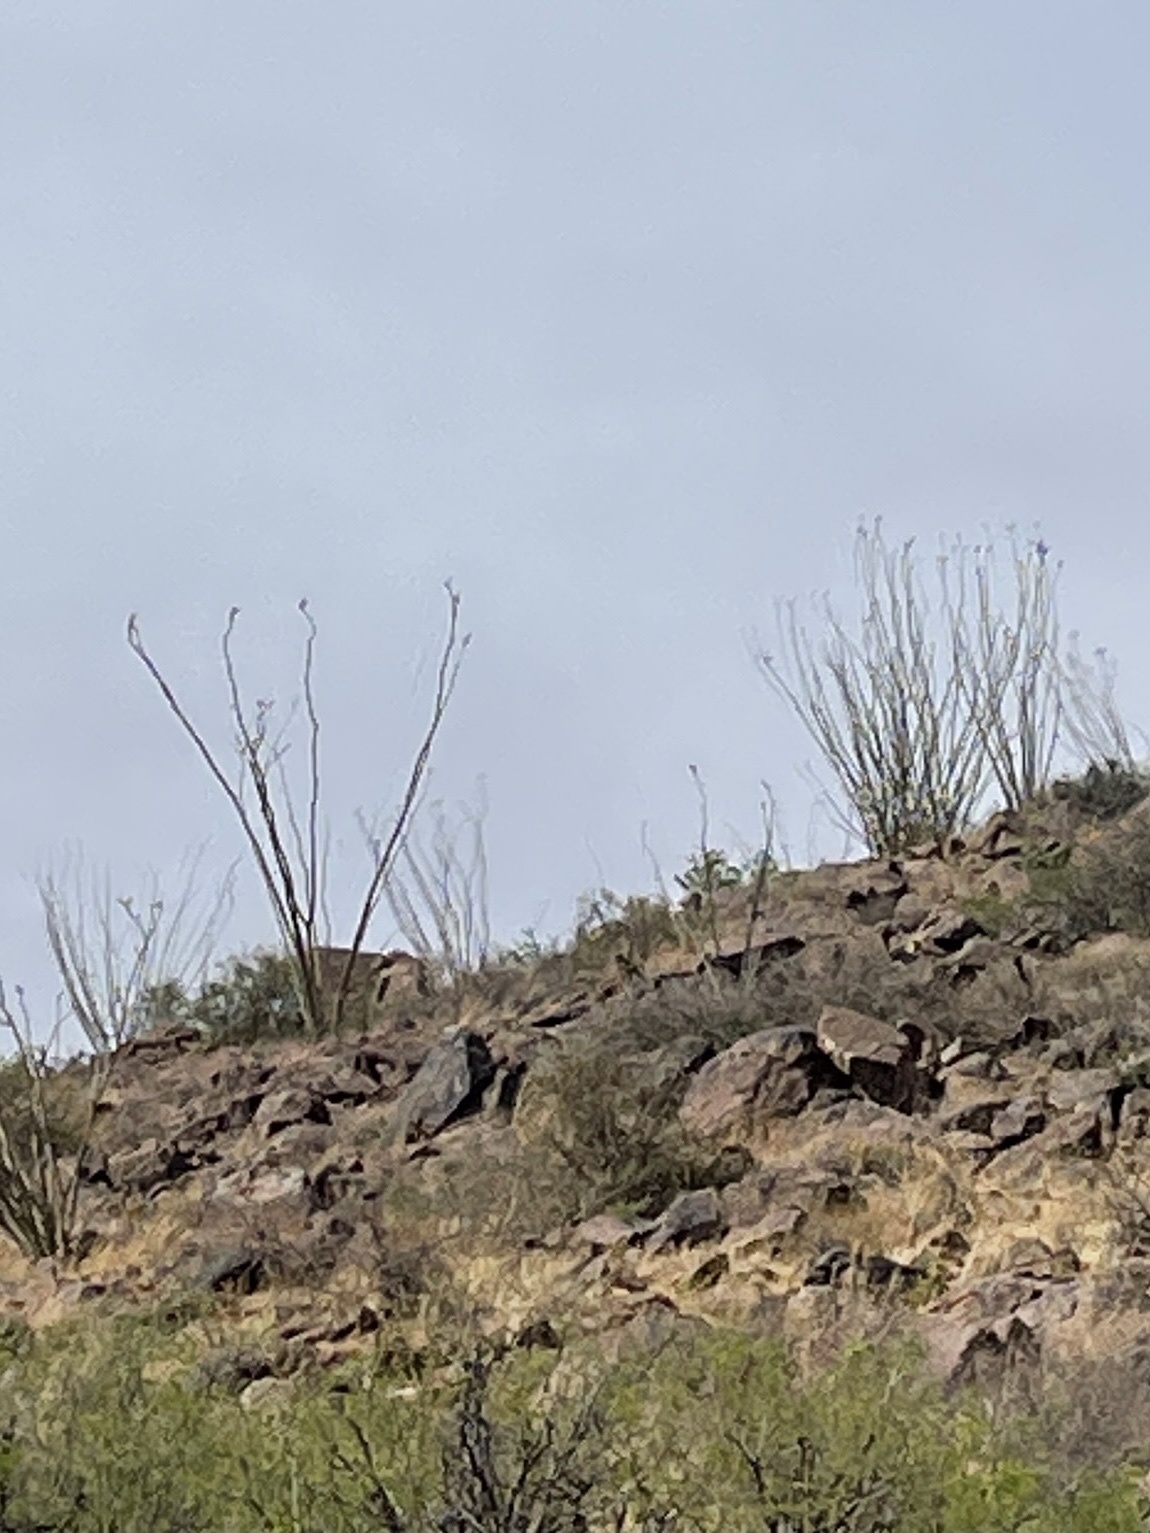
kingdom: Plantae
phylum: Tracheophyta
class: Magnoliopsida
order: Ericales
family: Fouquieriaceae
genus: Fouquieria
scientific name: Fouquieria splendens
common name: Vine-cactus
